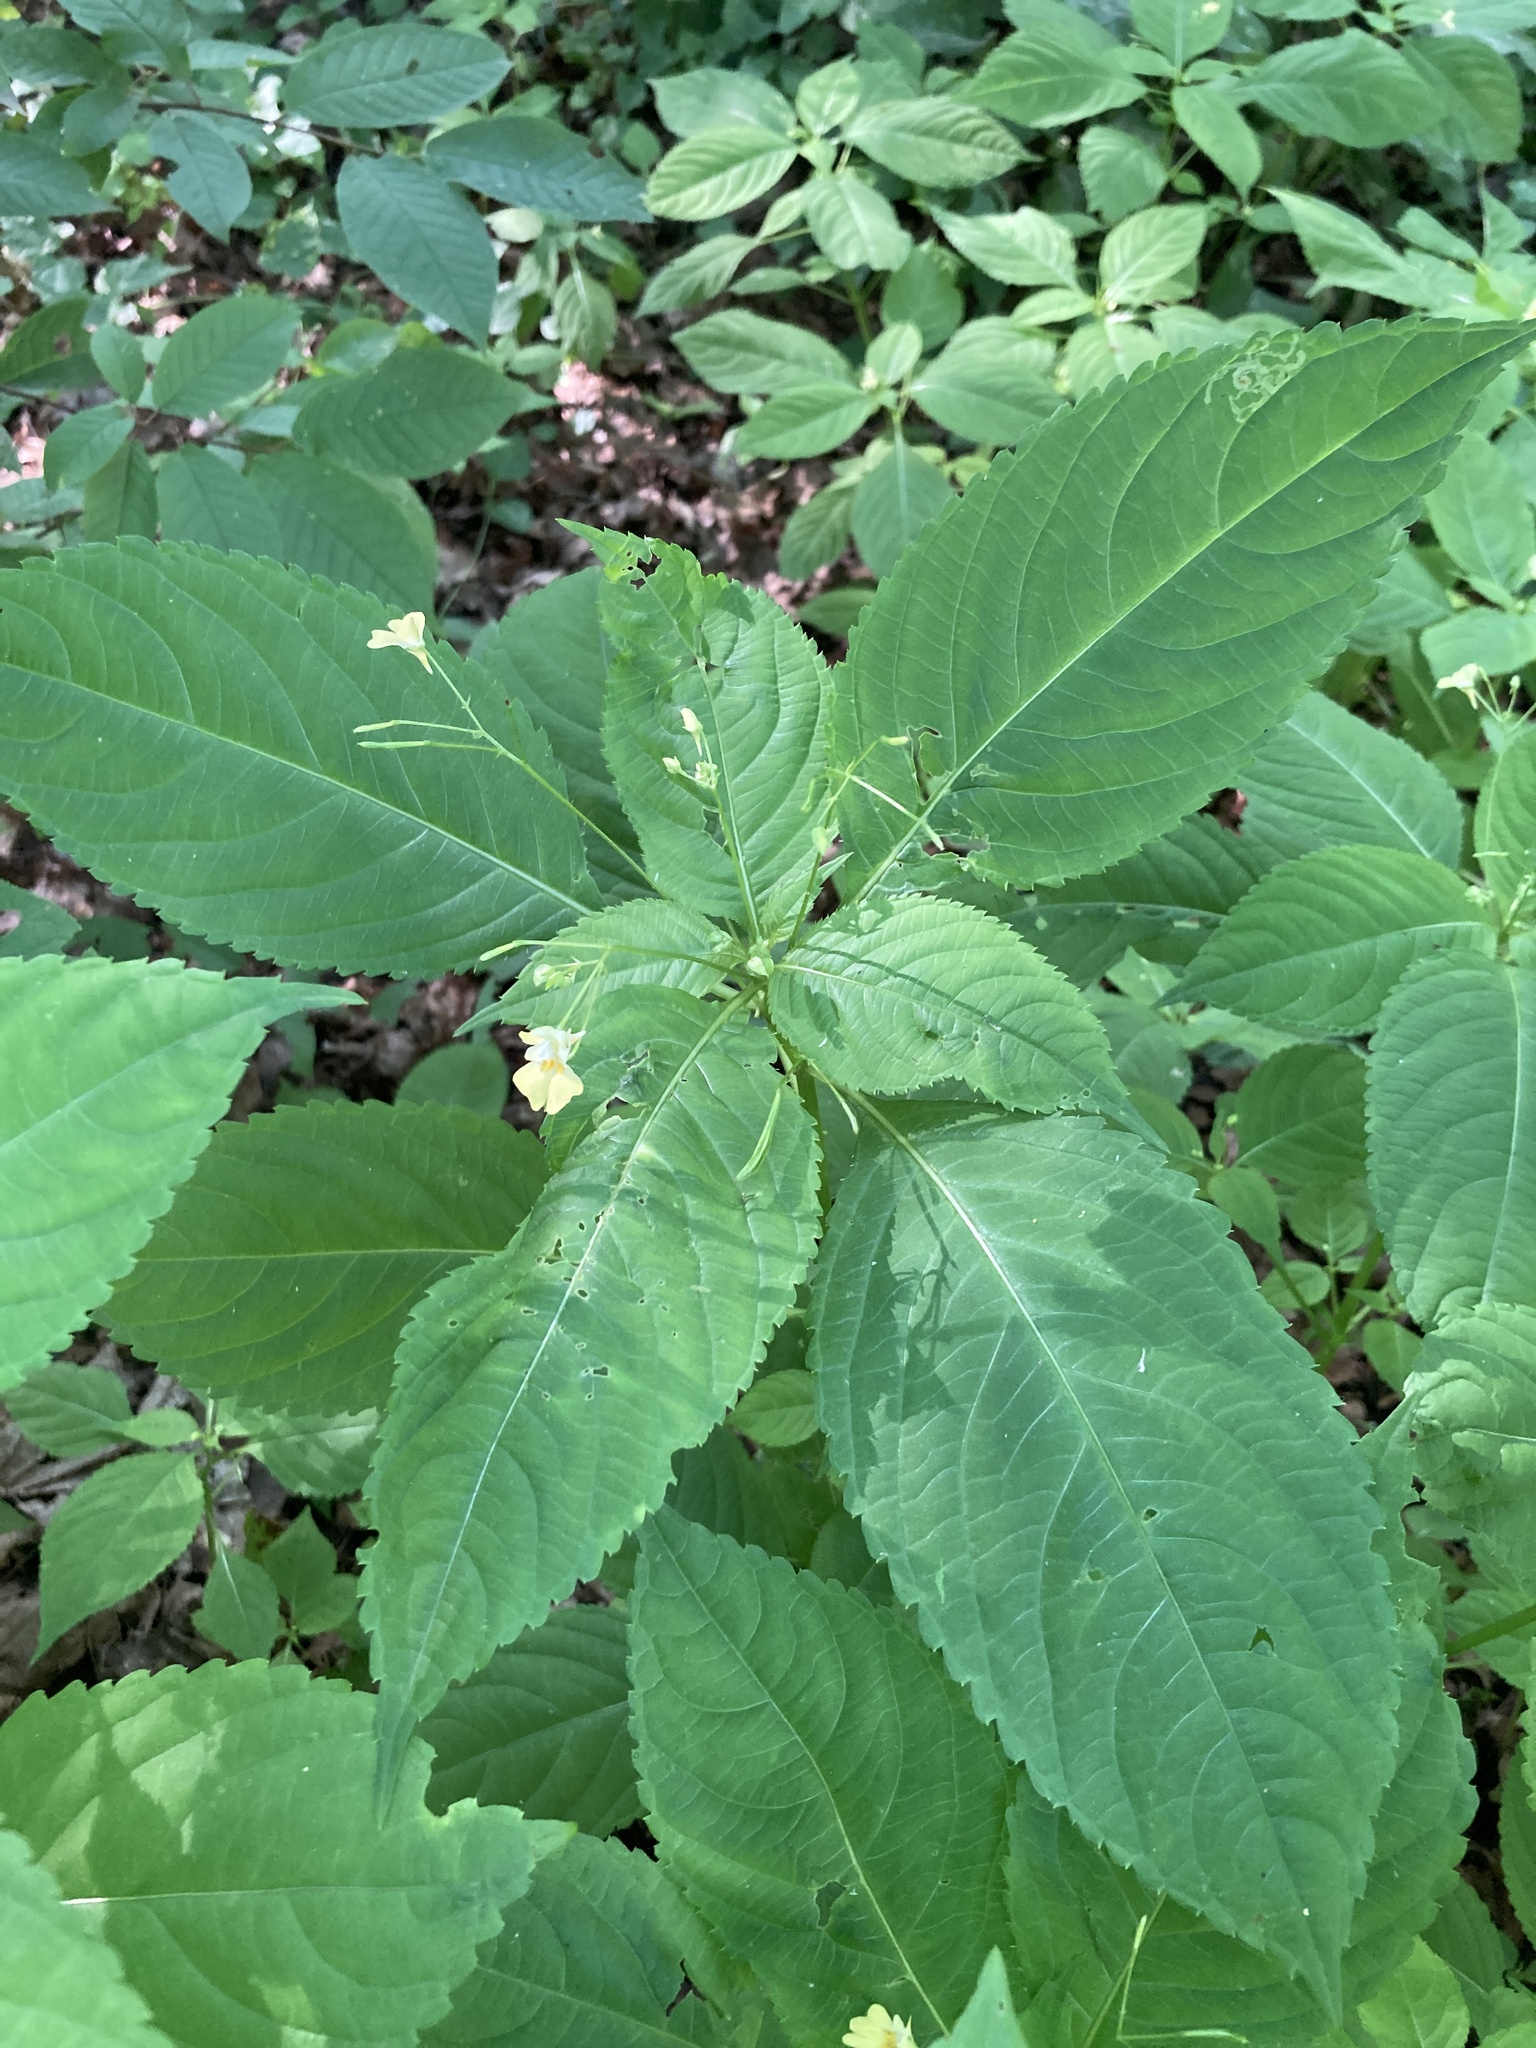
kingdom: Plantae
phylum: Tracheophyta
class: Magnoliopsida
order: Ericales
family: Balsaminaceae
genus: Impatiens
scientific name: Impatiens parviflora
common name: Small balsam
